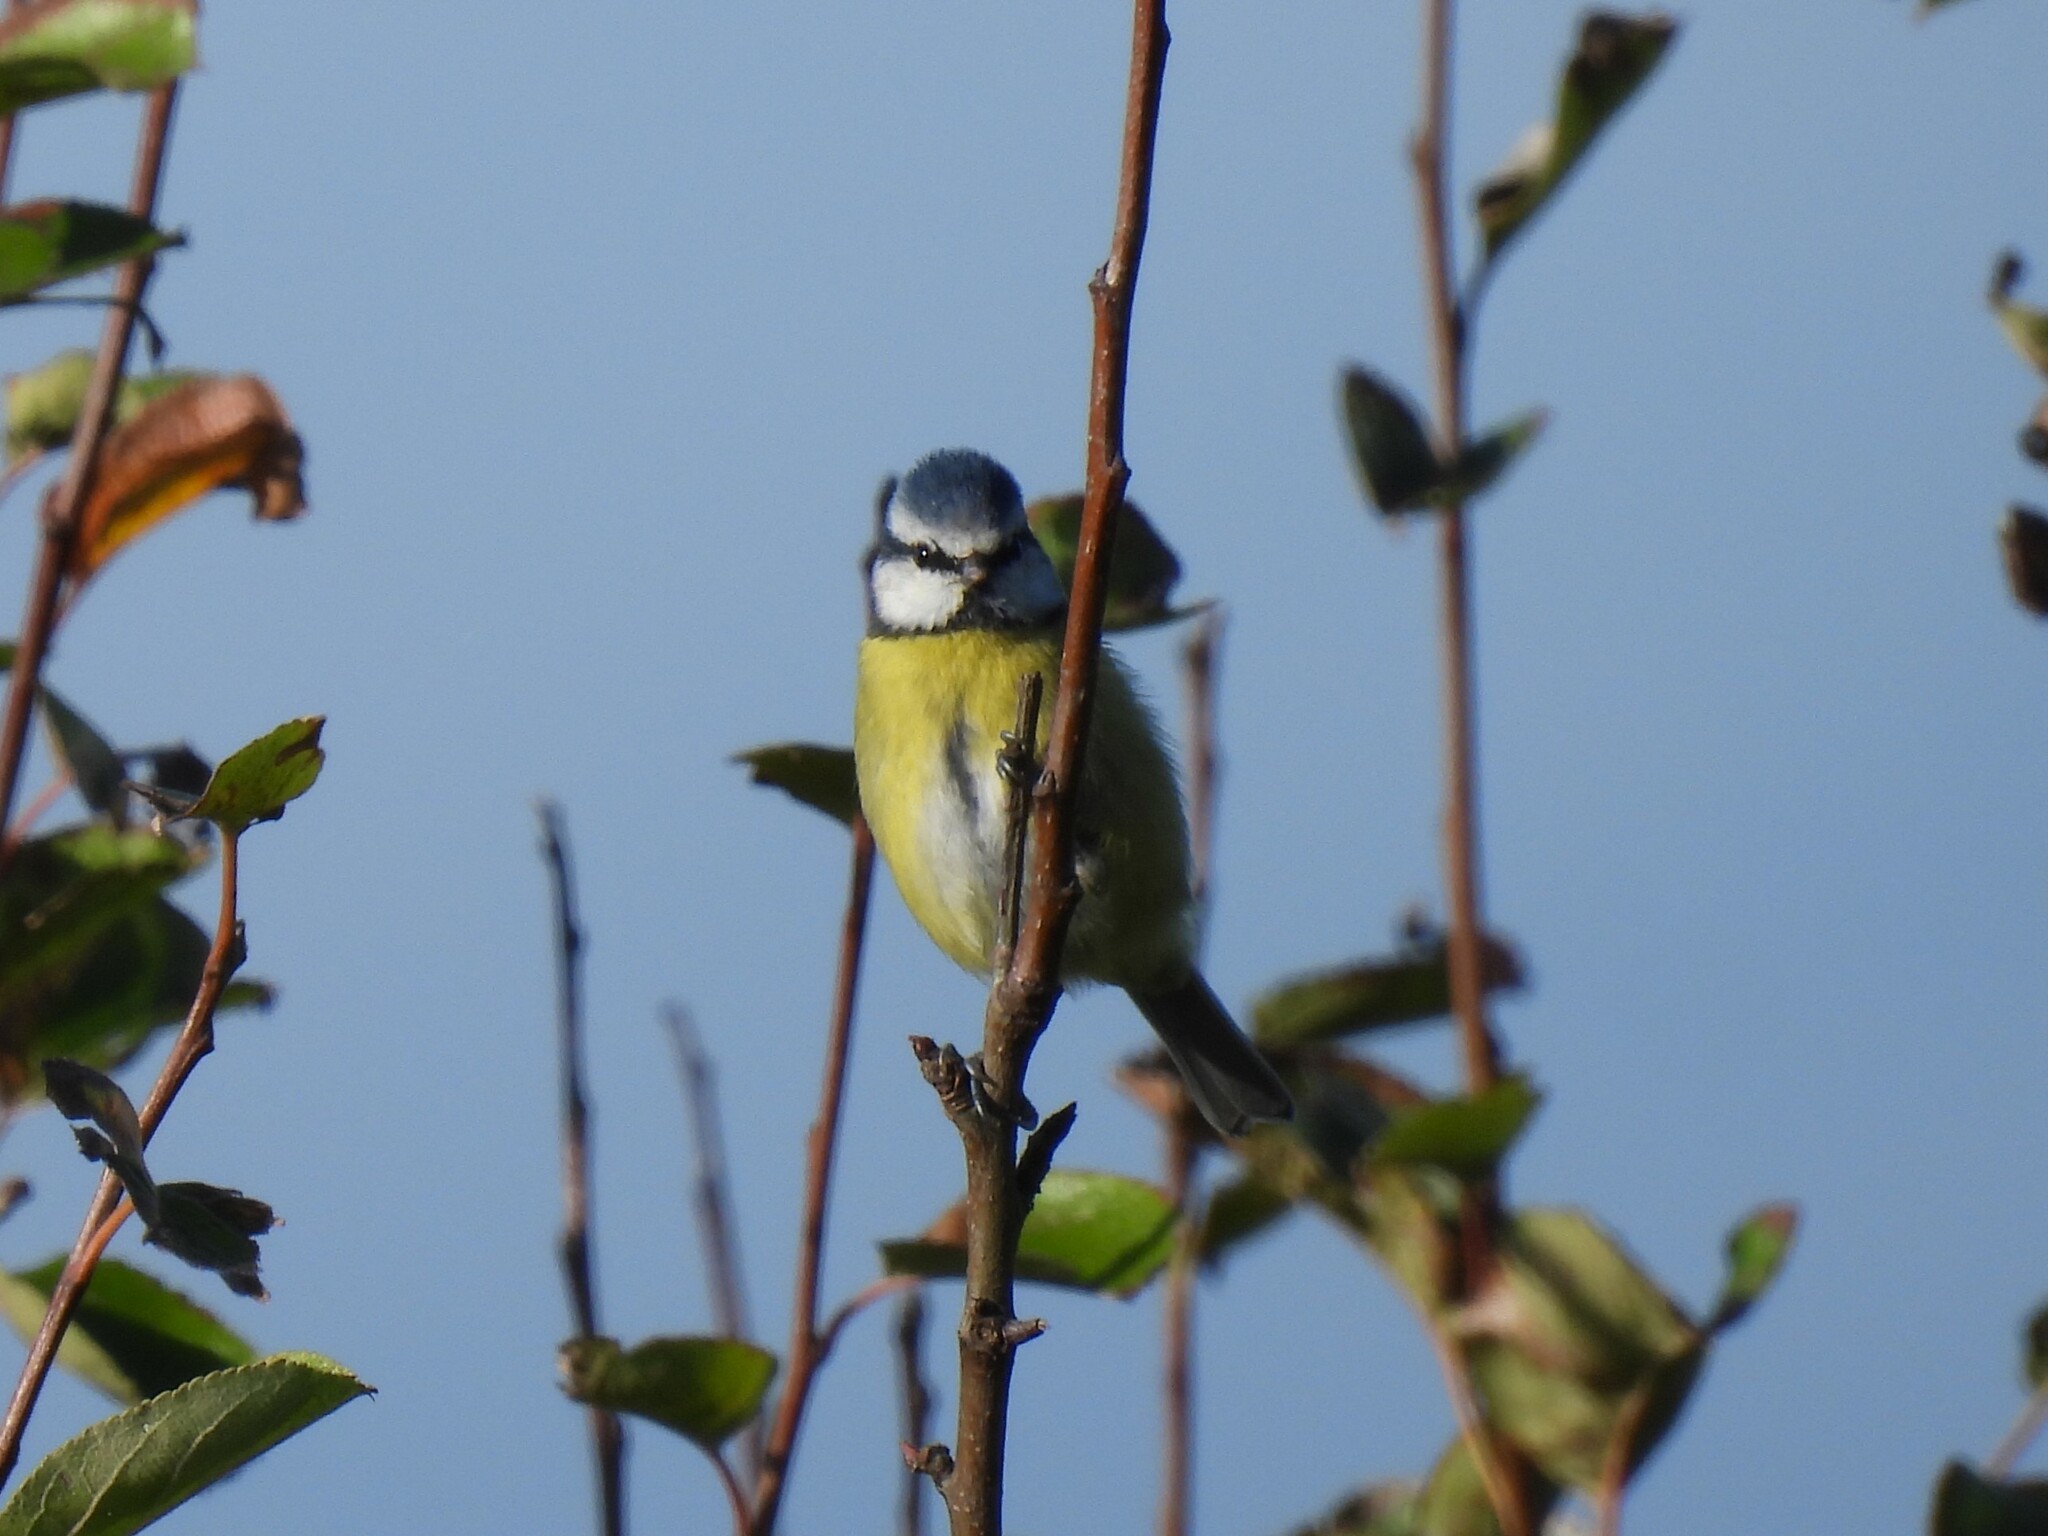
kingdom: Animalia
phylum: Chordata
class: Aves
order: Passeriformes
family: Paridae
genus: Cyanistes
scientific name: Cyanistes caeruleus
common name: Eurasian blue tit
